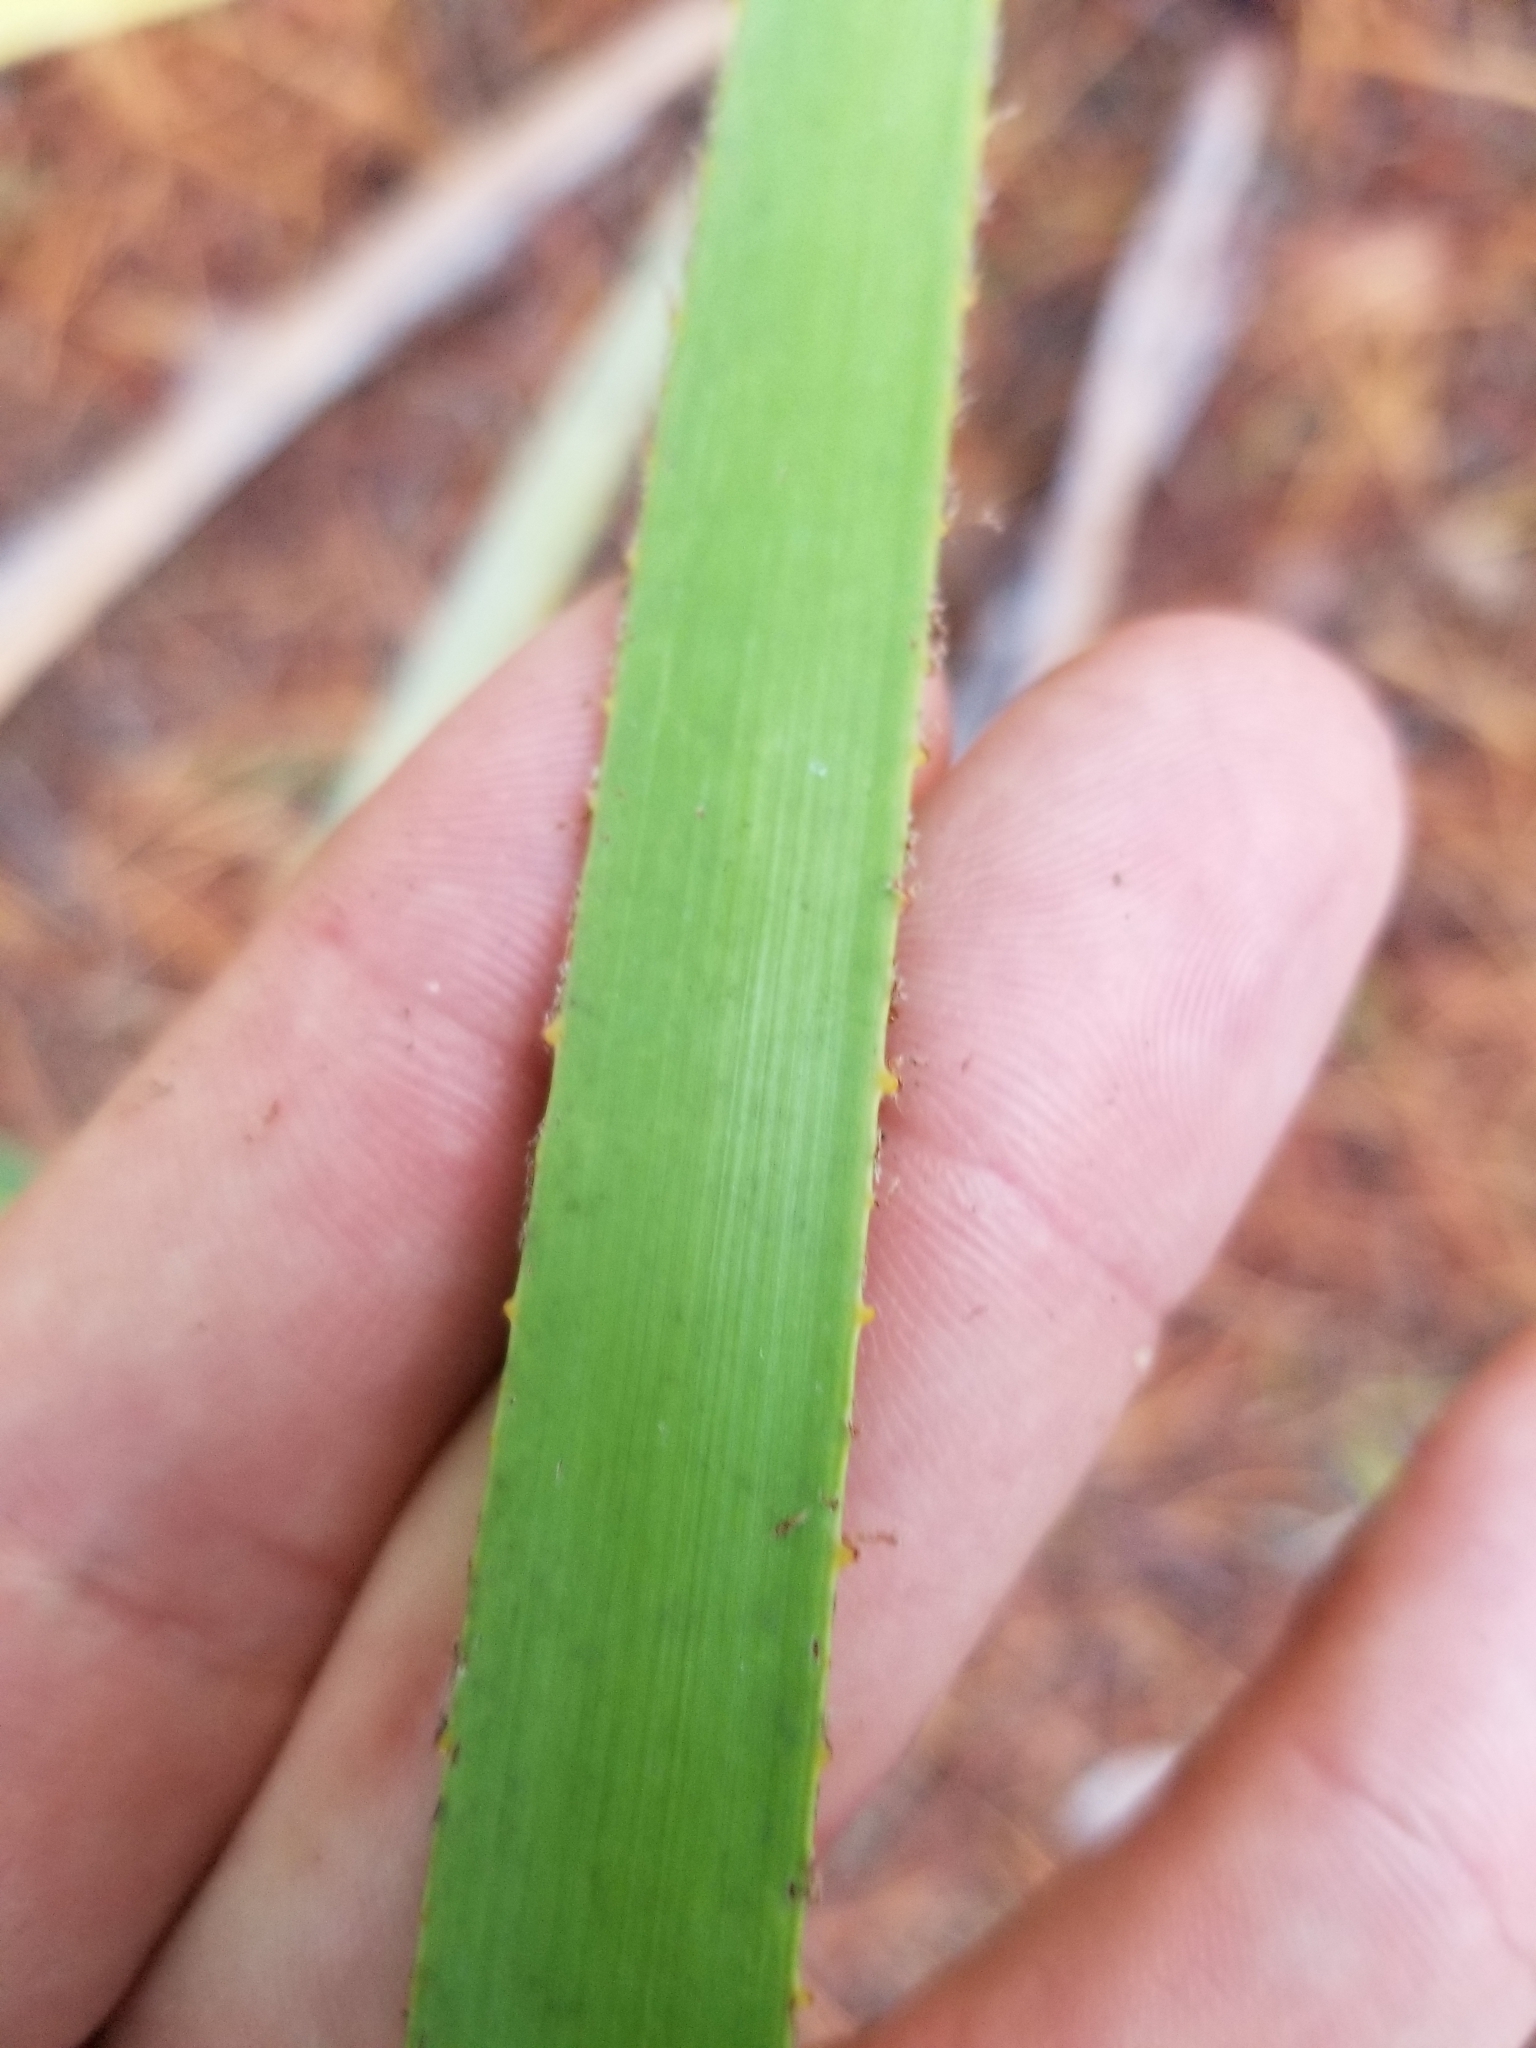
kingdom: Plantae
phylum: Tracheophyta
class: Liliopsida
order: Arecales
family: Arecaceae
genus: Serenoa
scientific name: Serenoa repens
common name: Saw-palmetto
